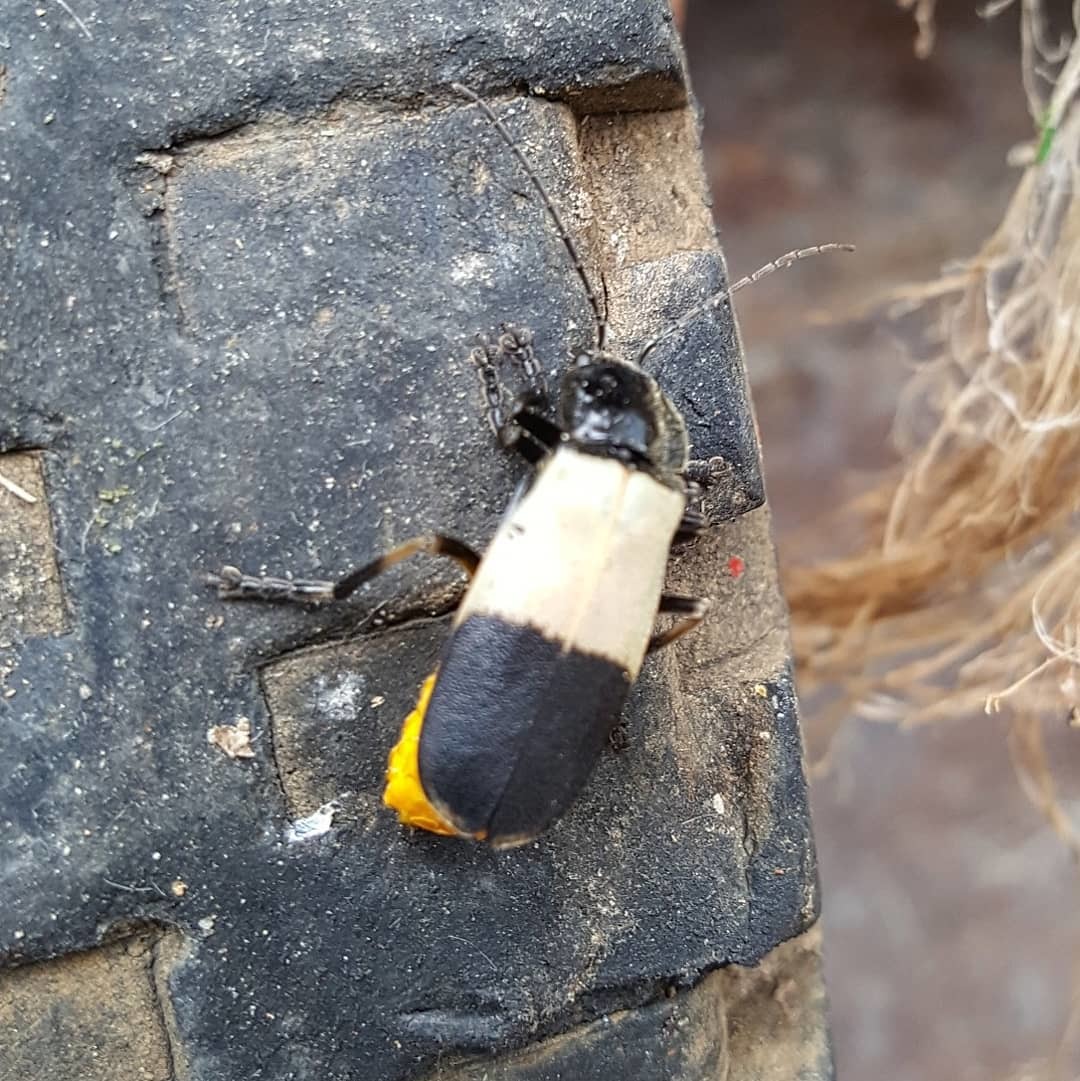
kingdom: Animalia
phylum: Arthropoda
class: Insecta
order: Coleoptera
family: Cantharidae
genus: Chauliognathus
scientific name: Chauliognathus
